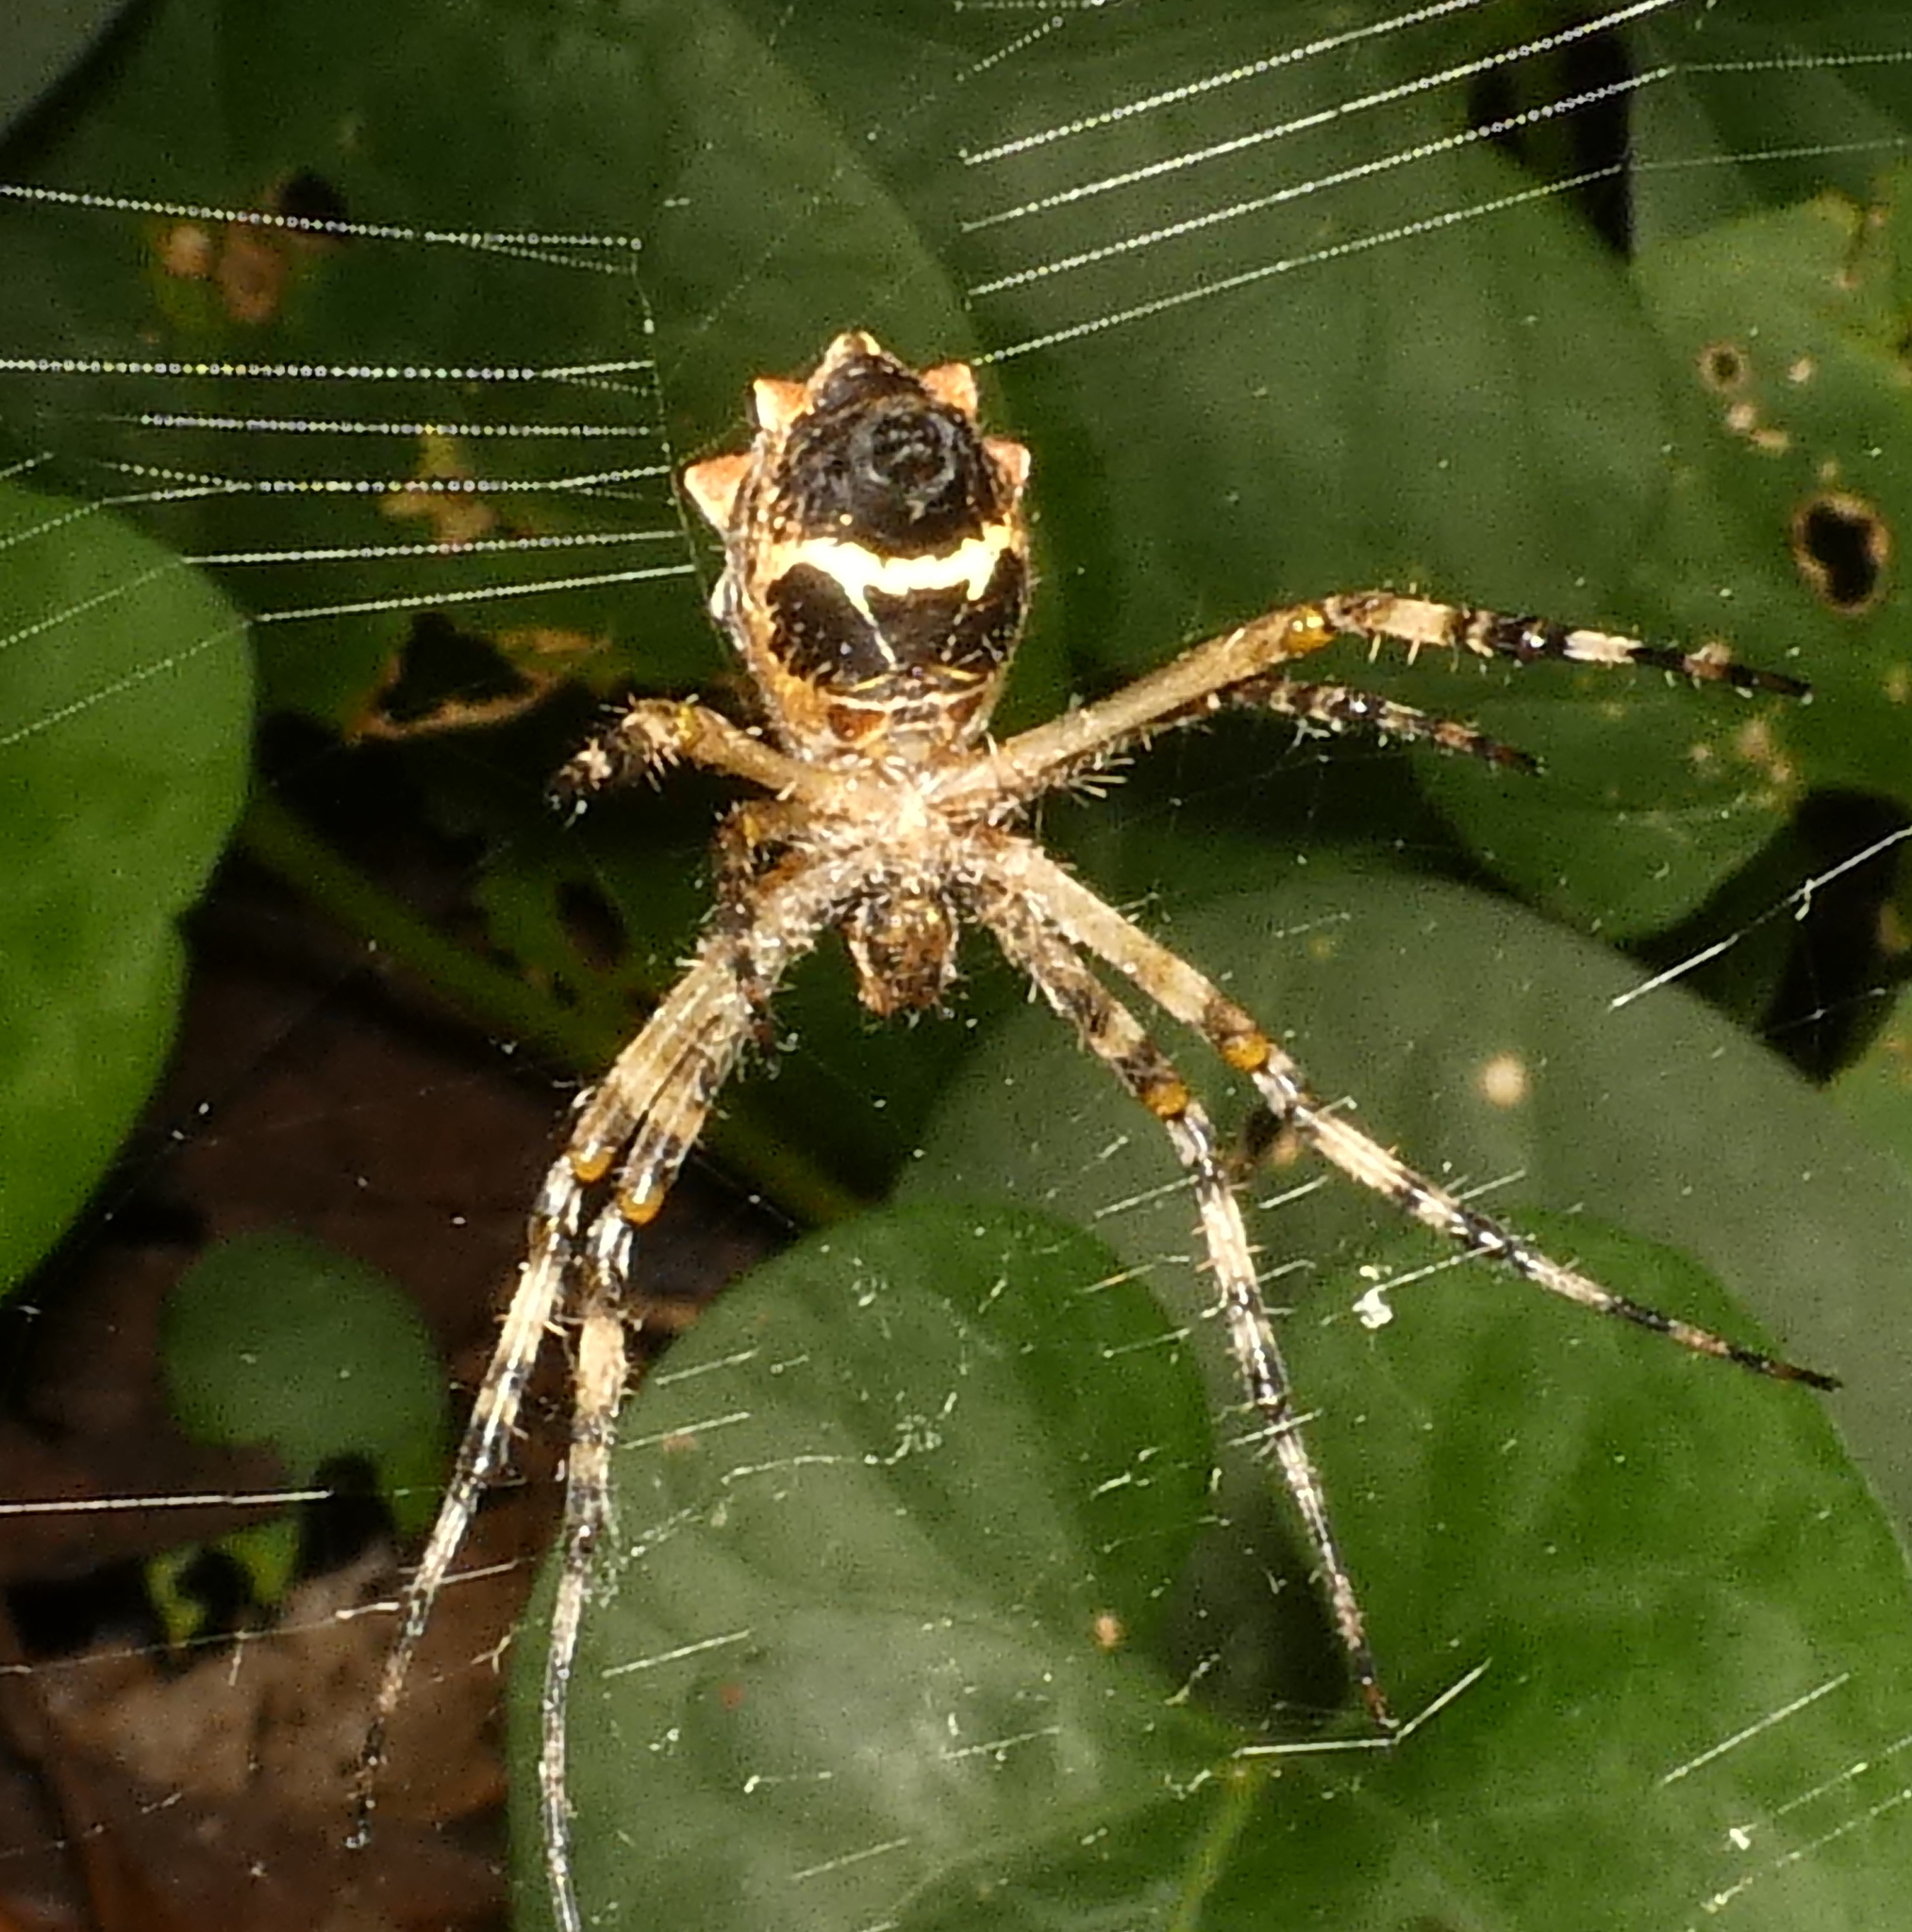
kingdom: Animalia
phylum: Arthropoda
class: Arachnida
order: Araneae
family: Araneidae
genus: Argiope
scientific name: Argiope argentata
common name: Orb weavers
